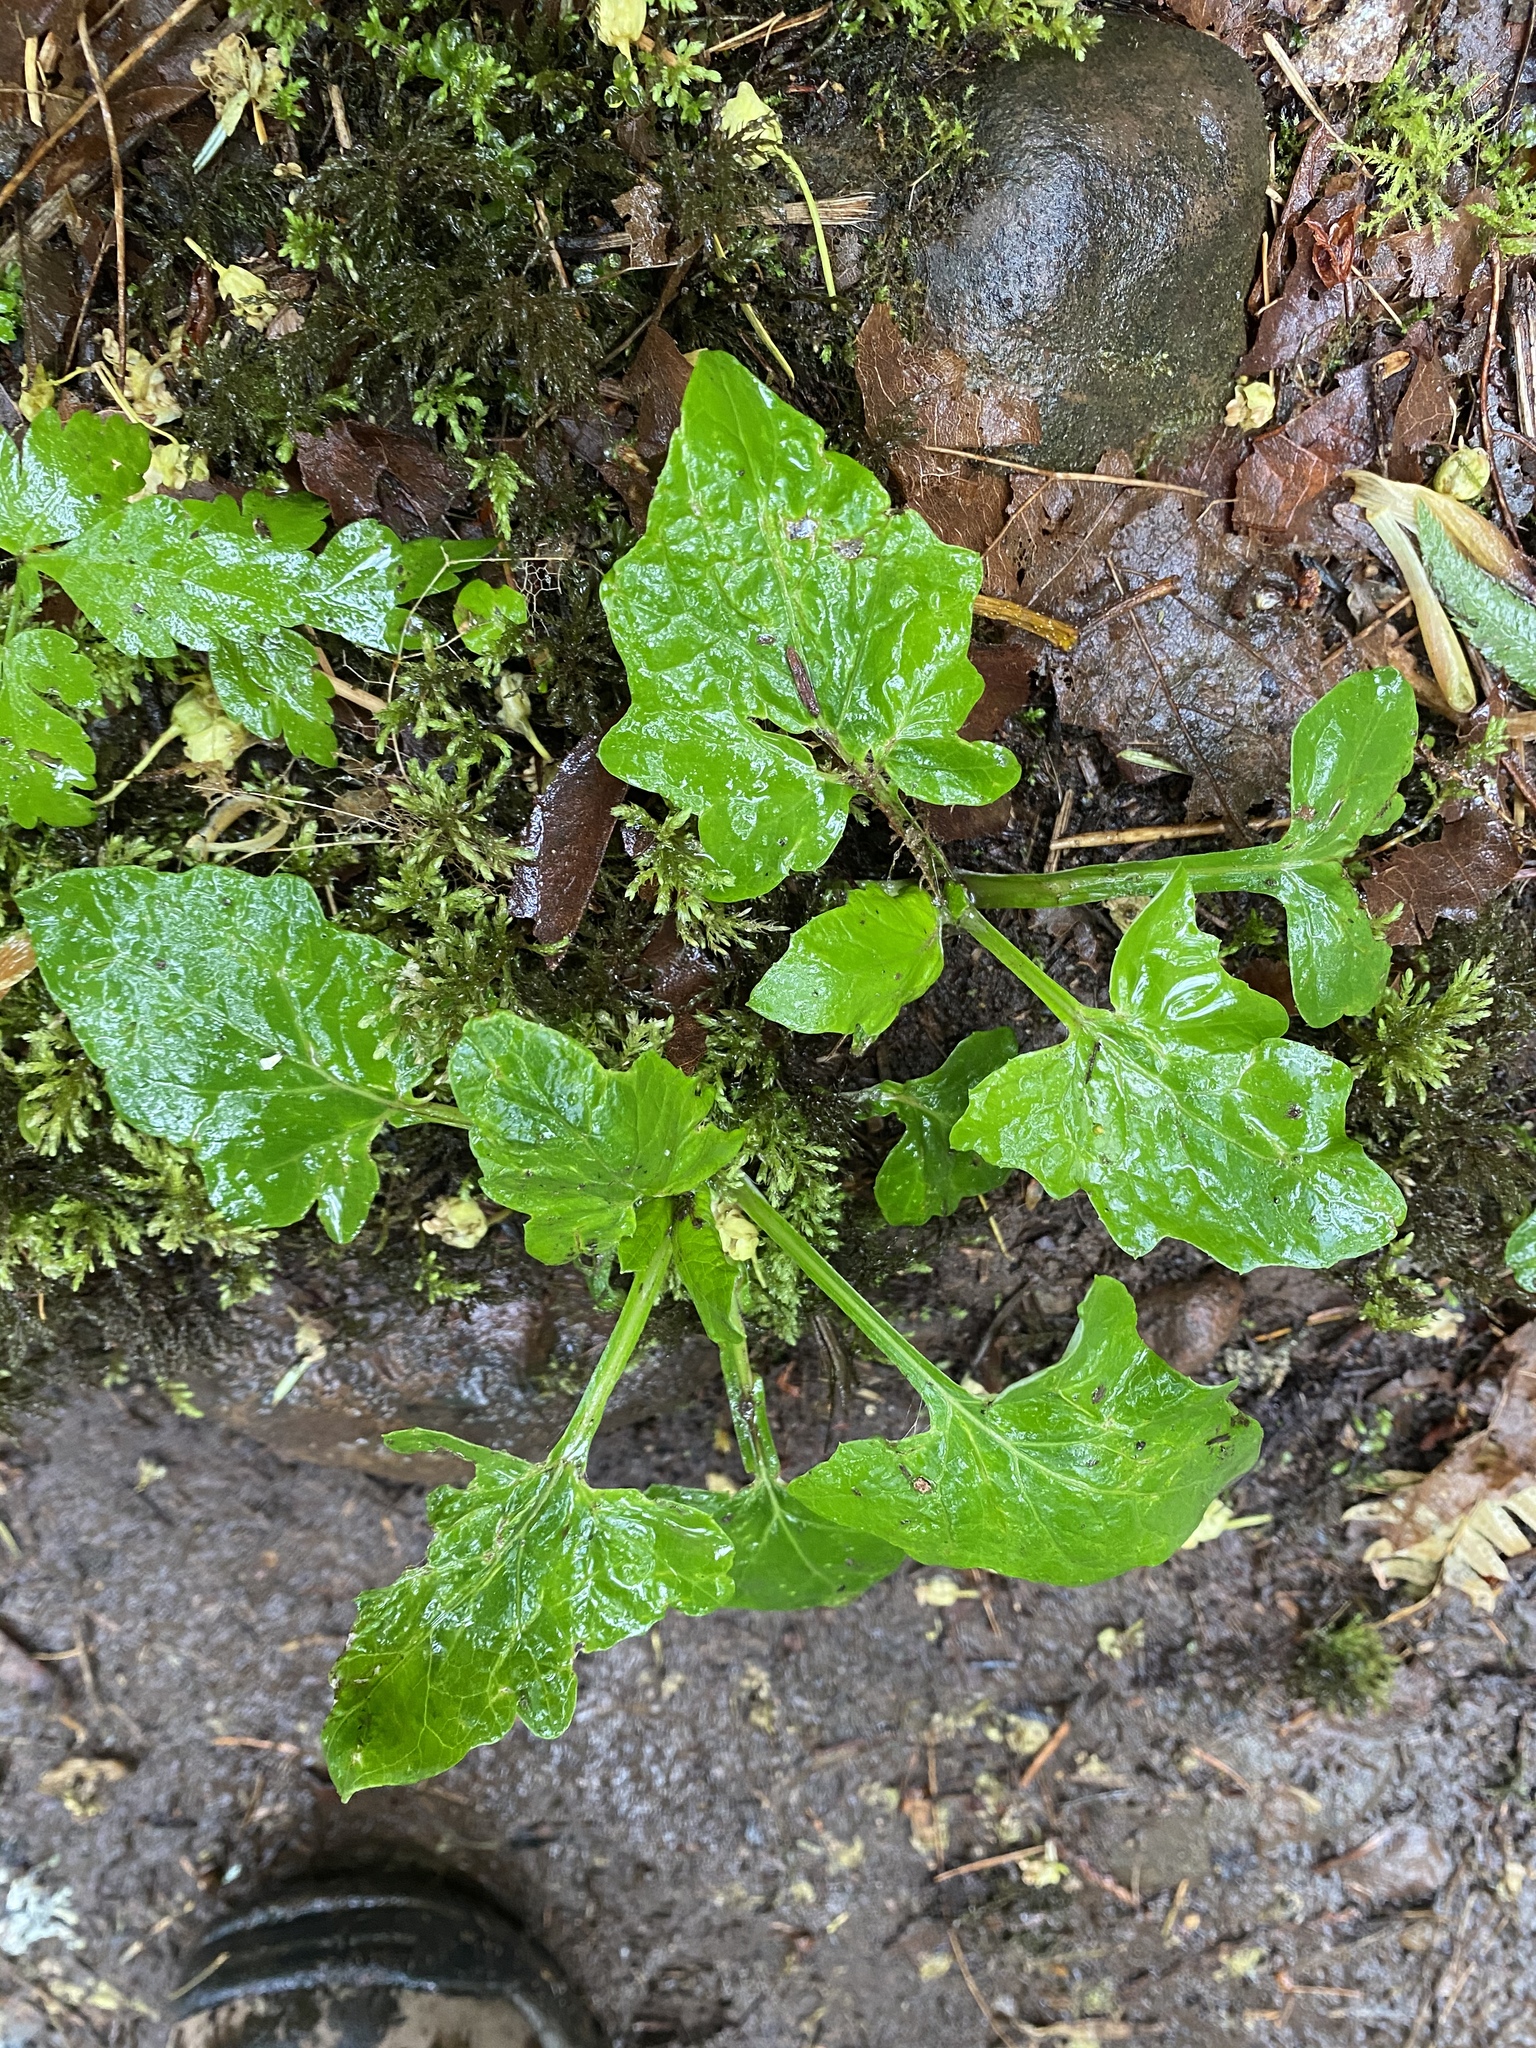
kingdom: Plantae
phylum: Tracheophyta
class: Magnoliopsida
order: Asterales
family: Asteraceae
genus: Adenocaulon
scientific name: Adenocaulon bicolor
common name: Trailplant
